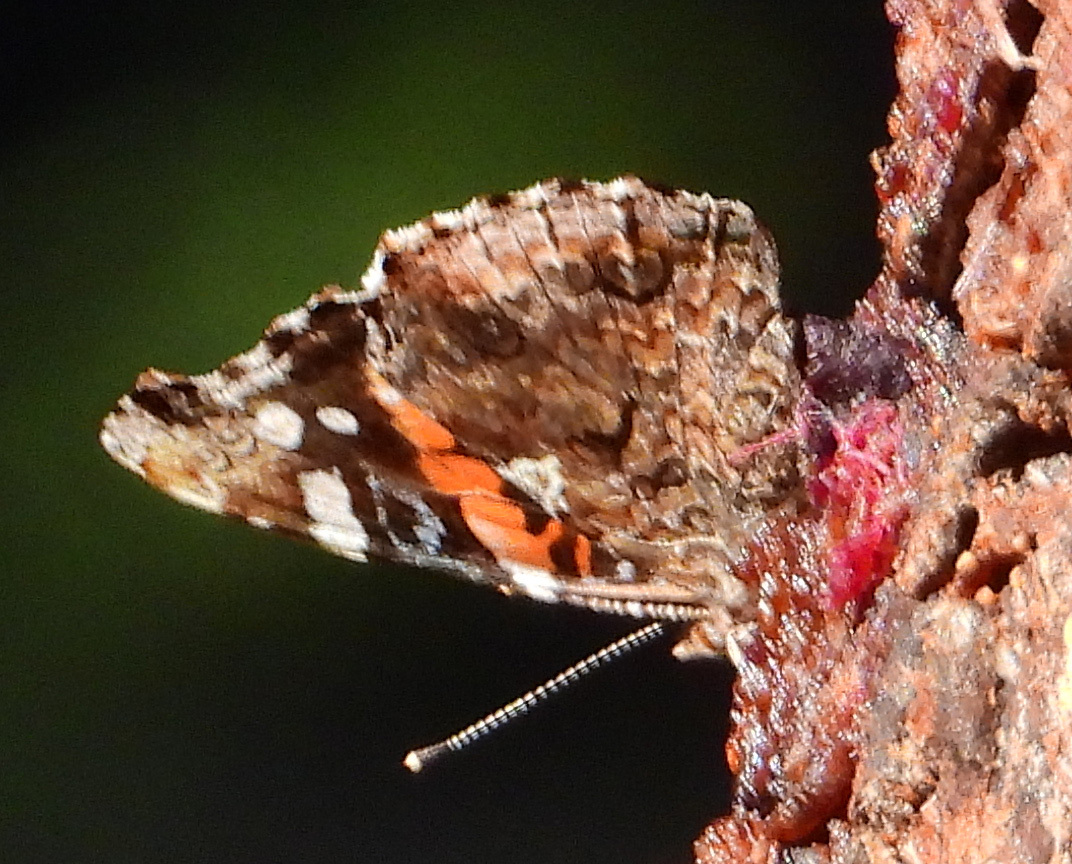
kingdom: Animalia
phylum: Arthropoda
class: Insecta
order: Lepidoptera
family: Nymphalidae
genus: Vanessa
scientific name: Vanessa atalanta
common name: Red admiral
